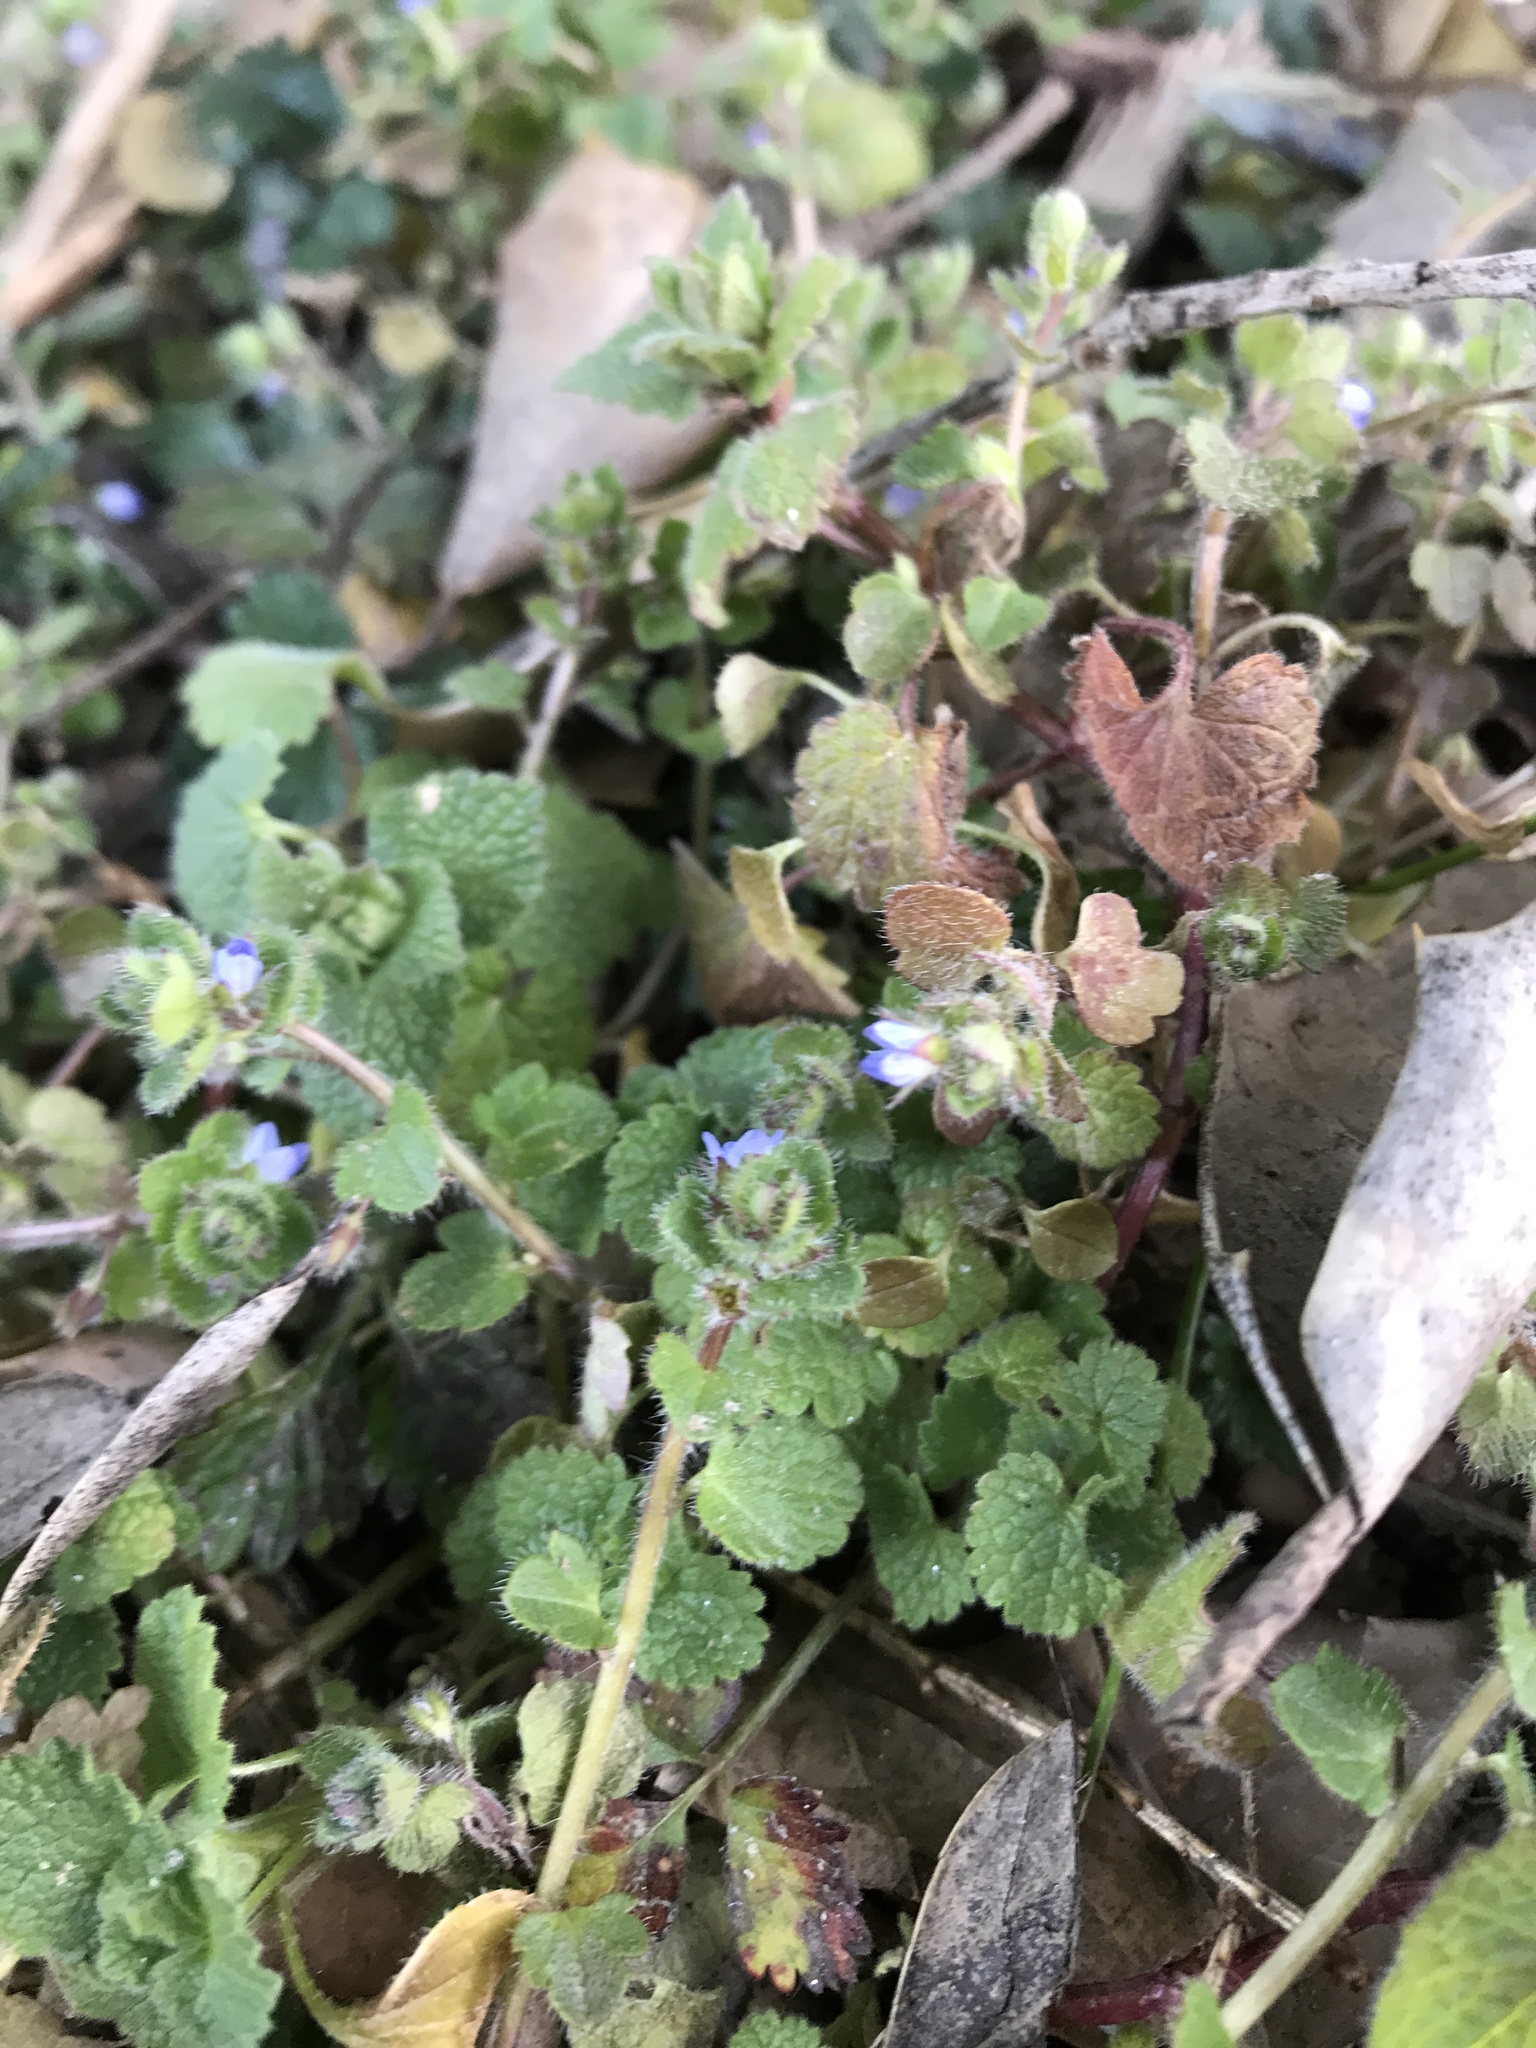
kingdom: Plantae
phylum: Tracheophyta
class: Magnoliopsida
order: Lamiales
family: Plantaginaceae
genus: Veronica
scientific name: Veronica hederifolia
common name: Ivy-leaved speedwell
